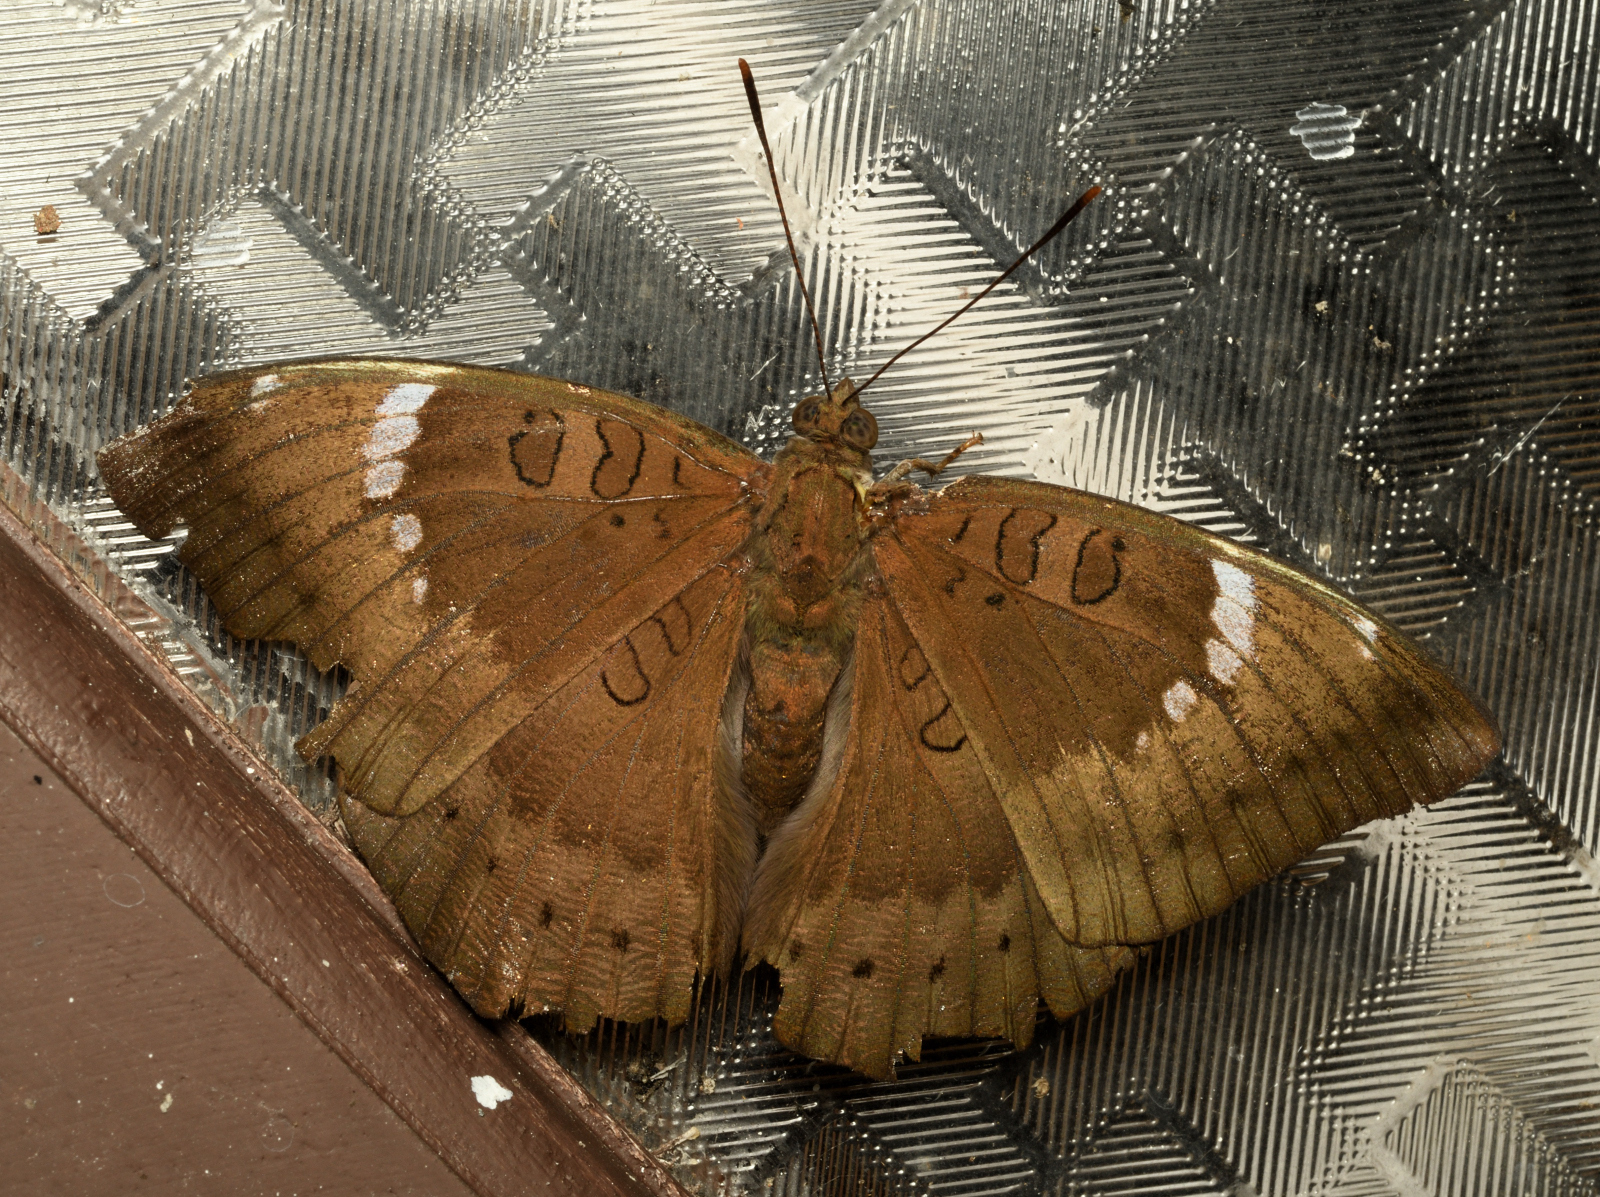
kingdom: Animalia
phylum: Arthropoda
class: Insecta
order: Lepidoptera
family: Nymphalidae
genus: Euthalia
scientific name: Euthalia aconthea
